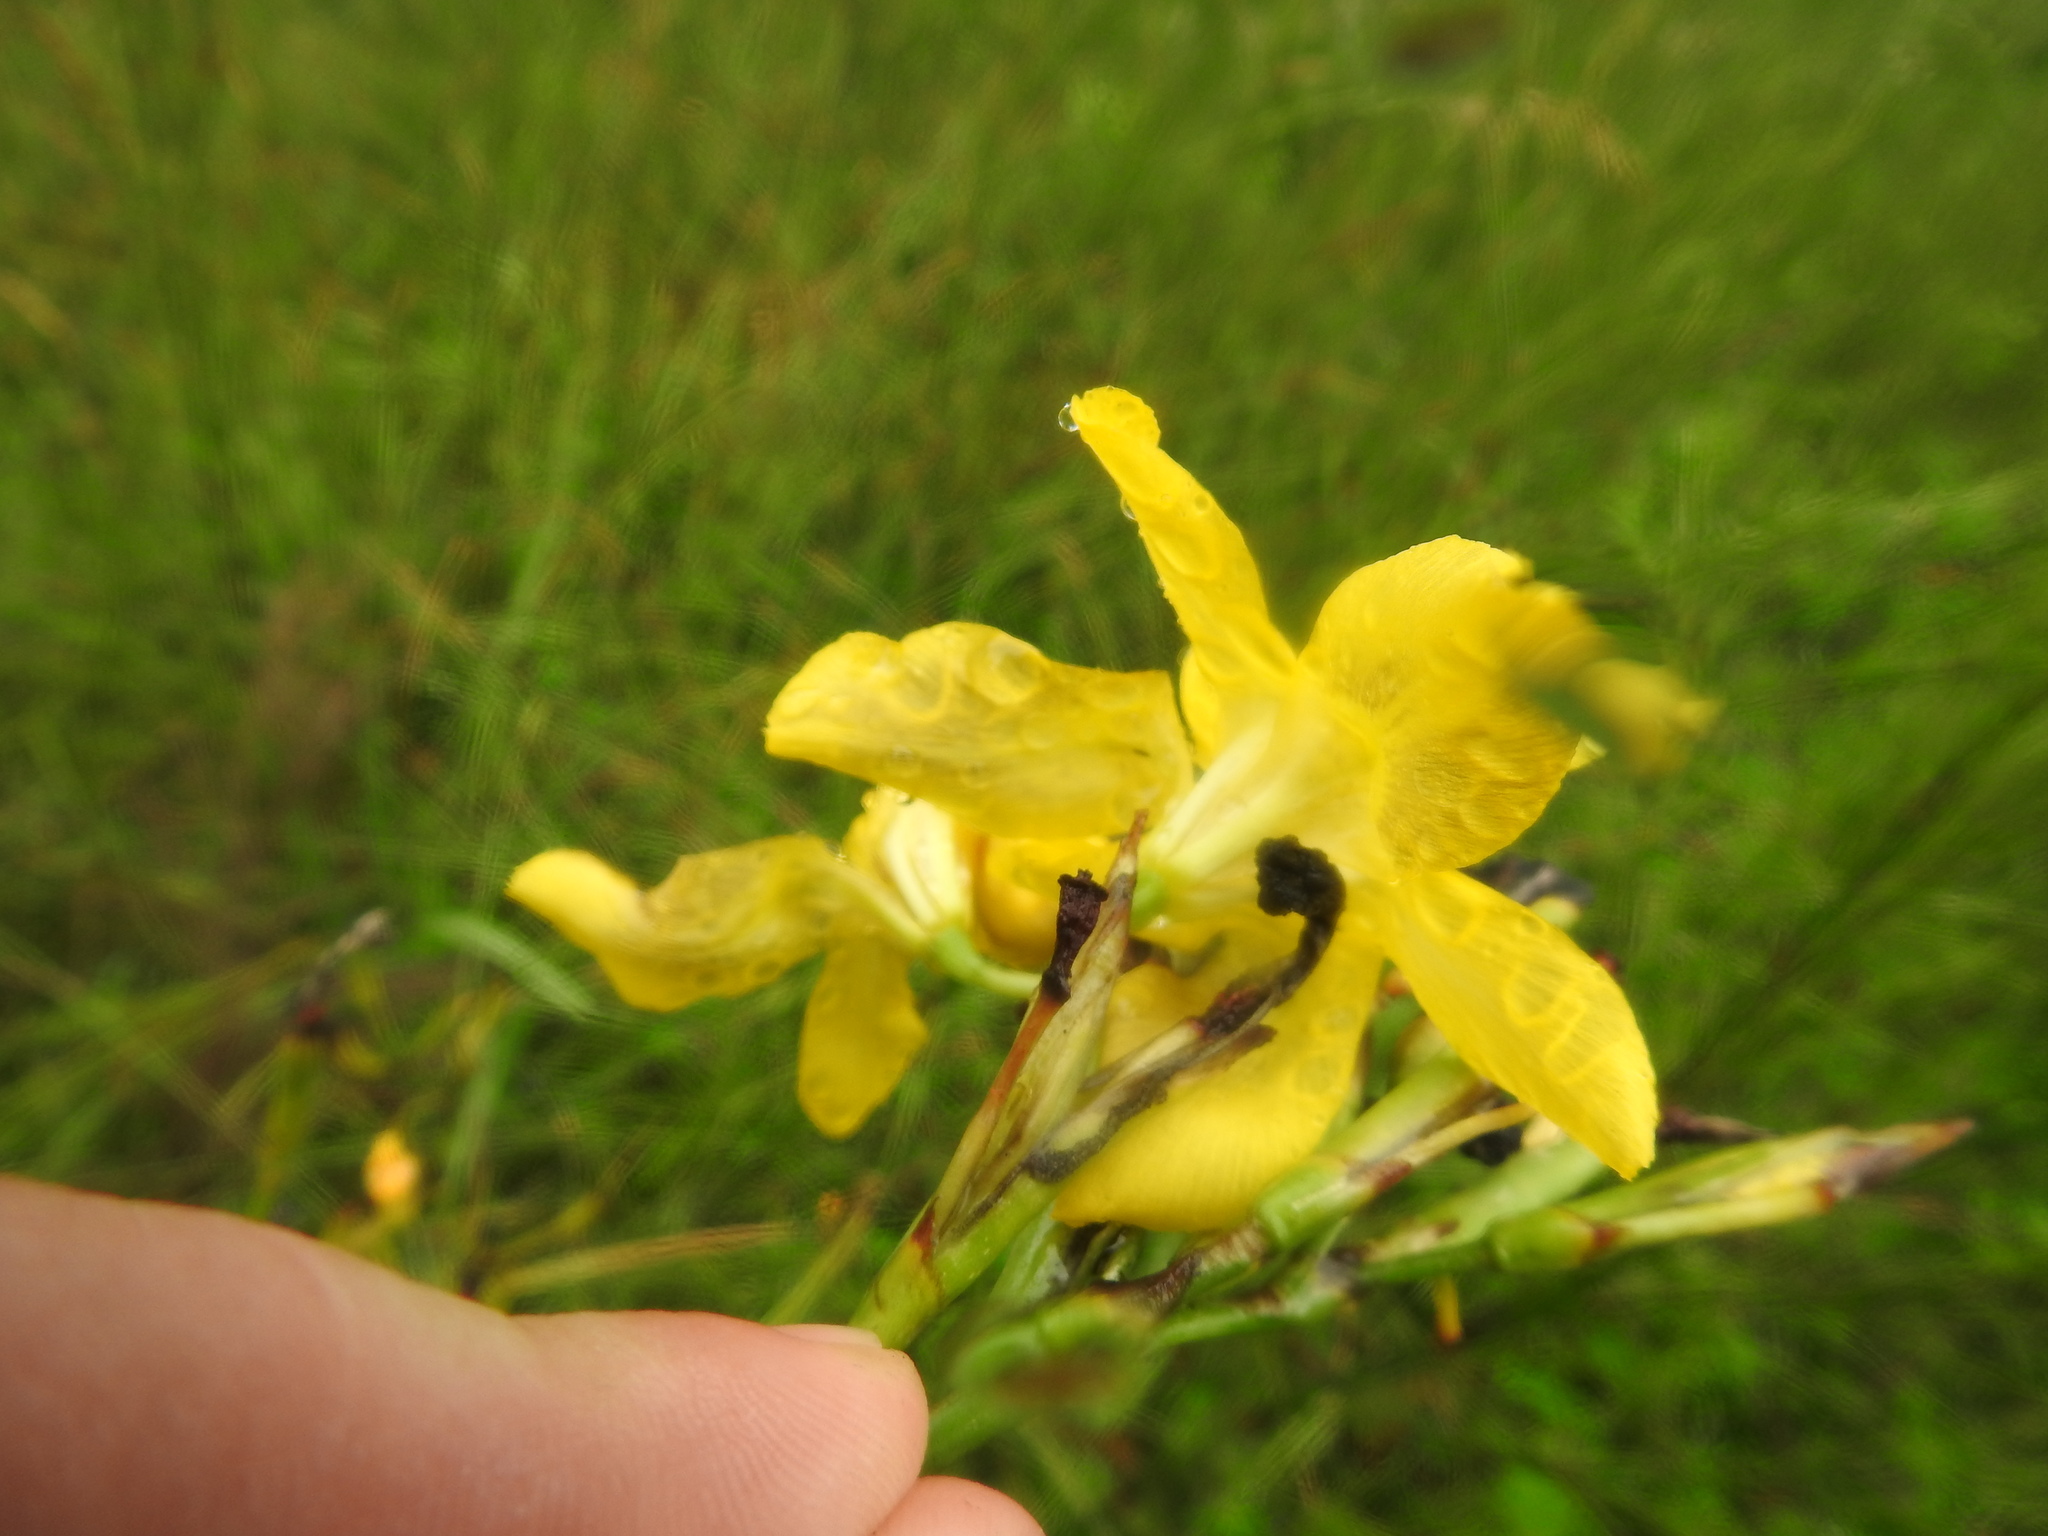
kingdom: Plantae
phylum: Tracheophyta
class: Liliopsida
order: Asparagales
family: Iridaceae
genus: Moraea
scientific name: Moraea ramosissima
